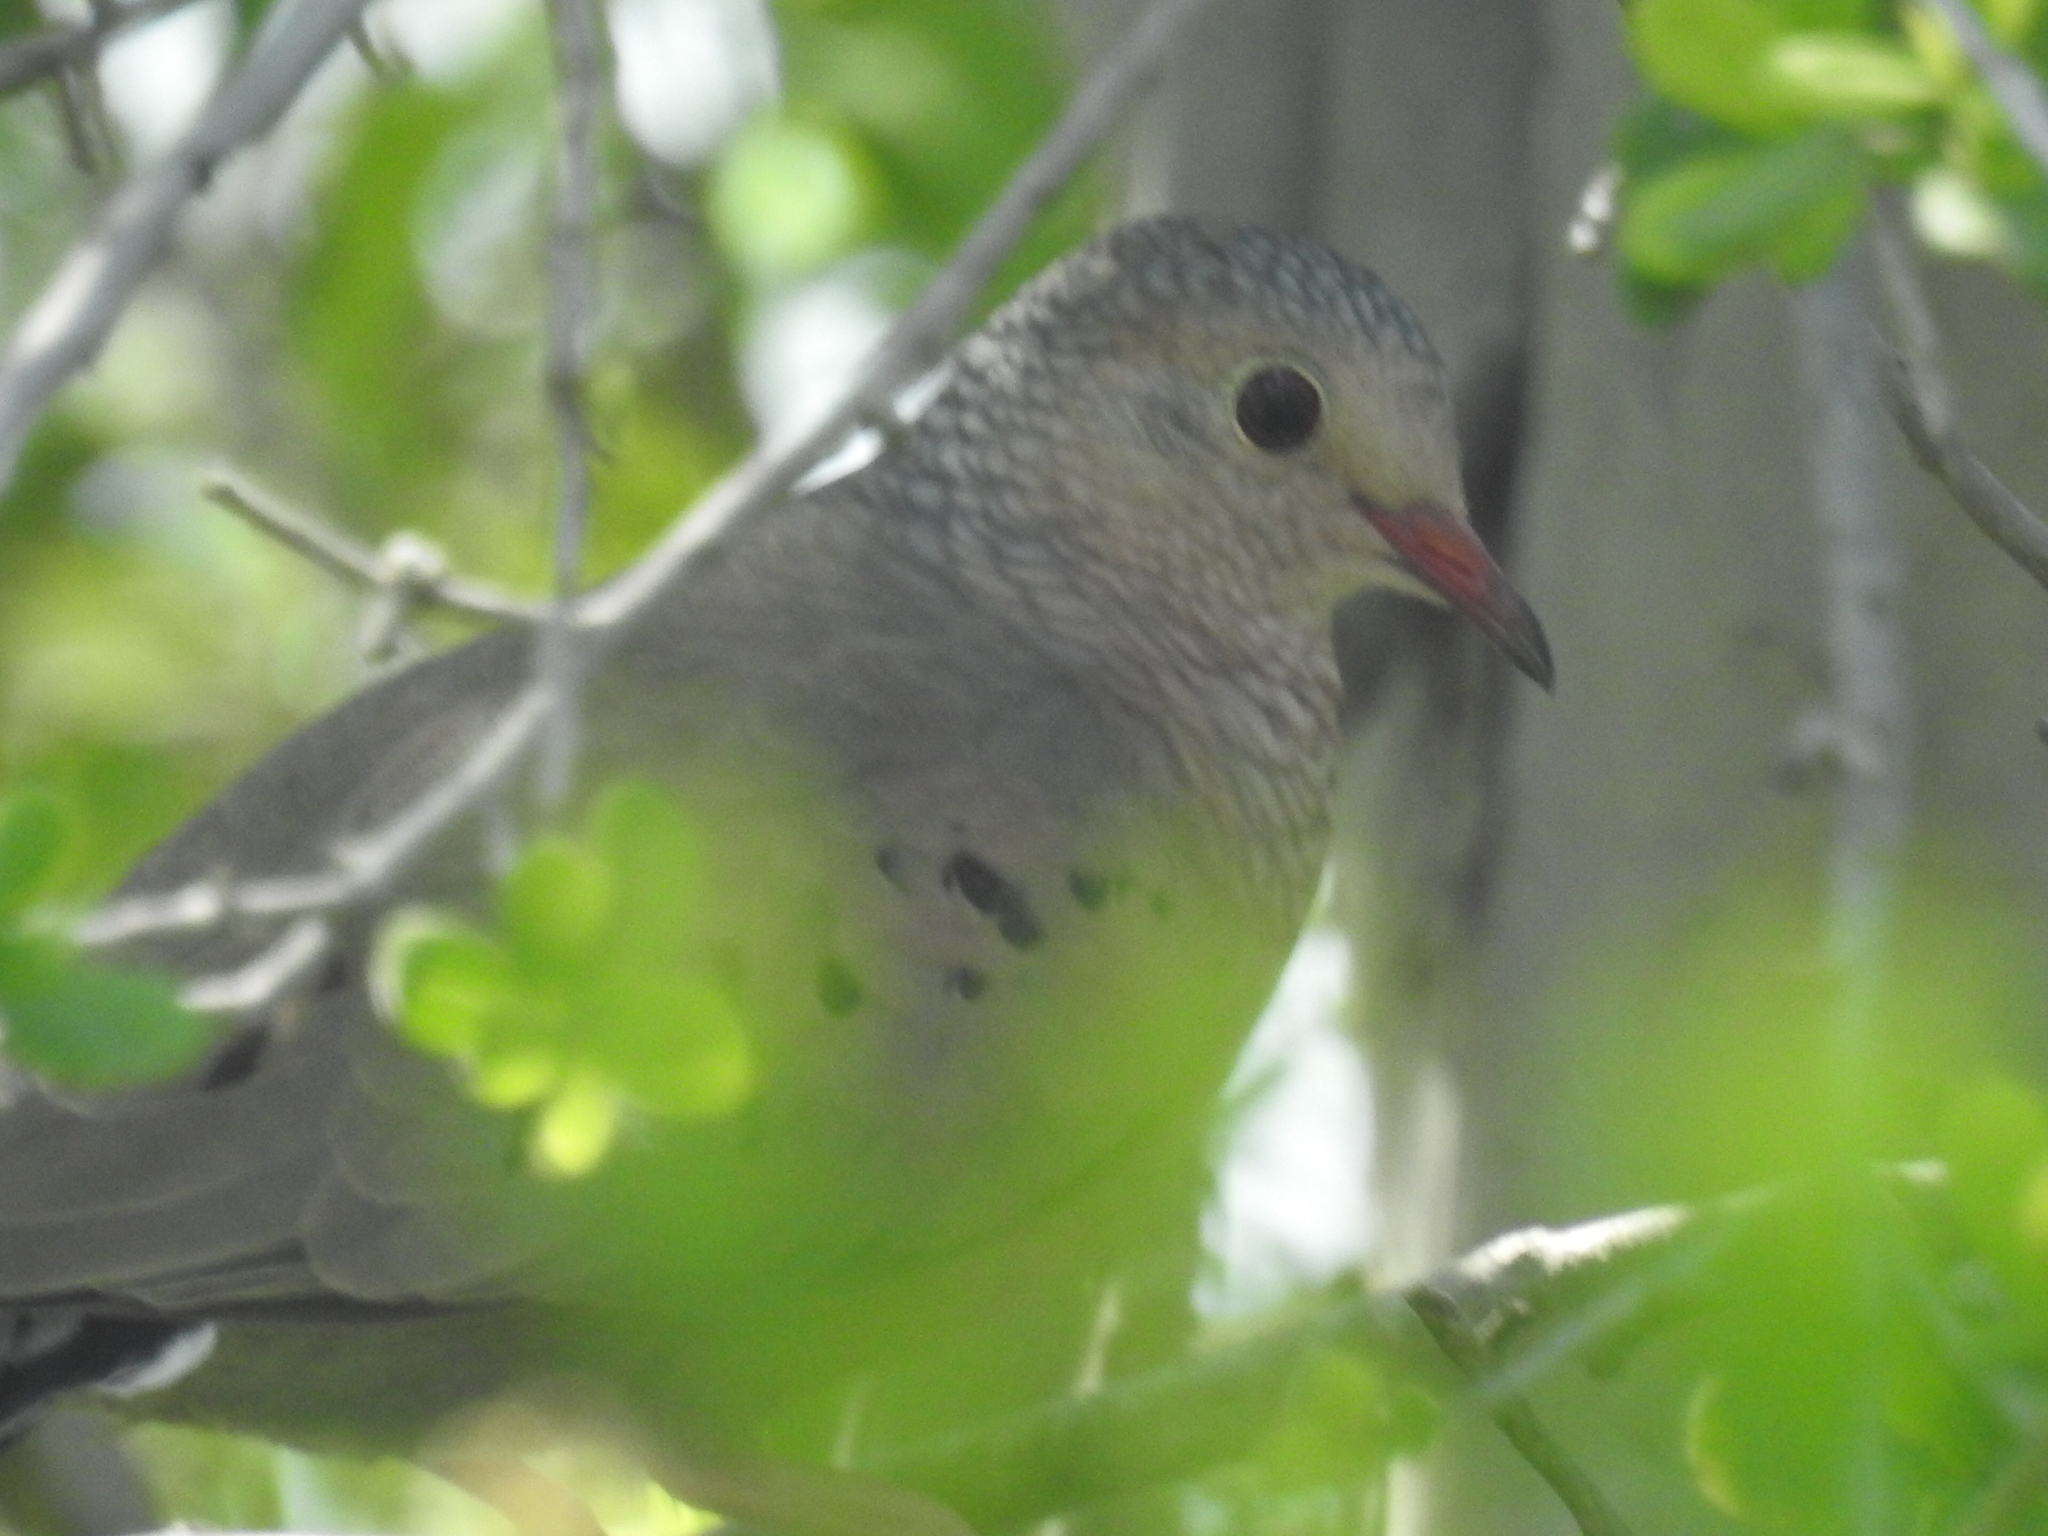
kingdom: Animalia
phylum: Chordata
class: Aves
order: Columbiformes
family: Columbidae
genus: Columbina
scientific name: Columbina passerina
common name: Common ground-dove
